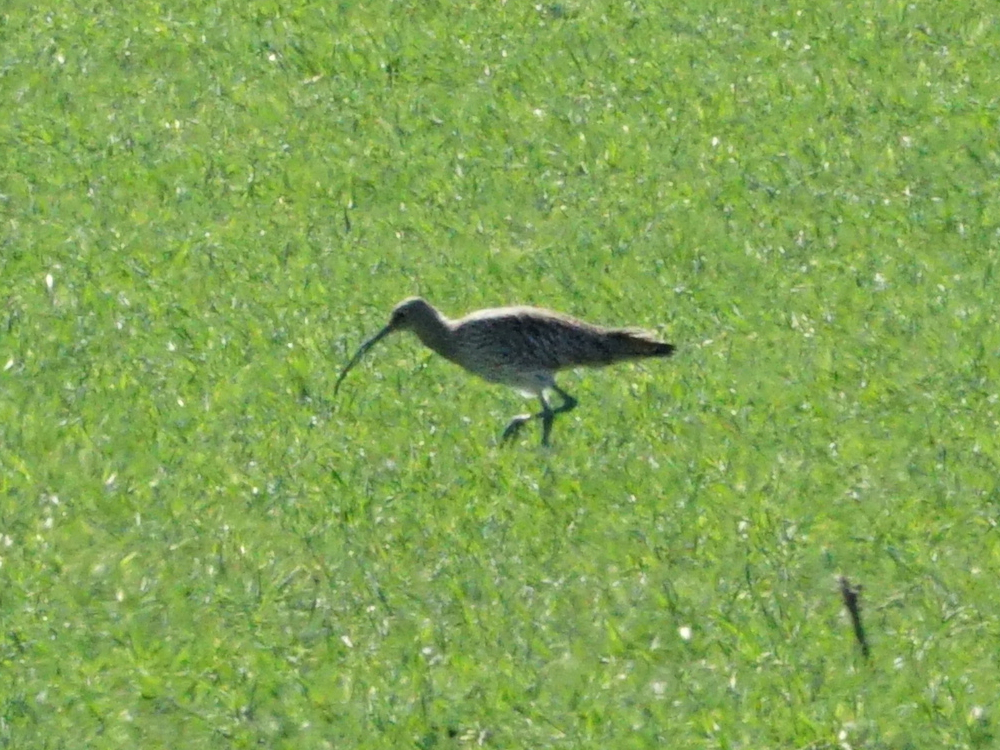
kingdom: Animalia
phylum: Chordata
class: Aves
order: Charadriiformes
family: Scolopacidae
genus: Numenius
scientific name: Numenius arquata
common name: Eurasian curlew
